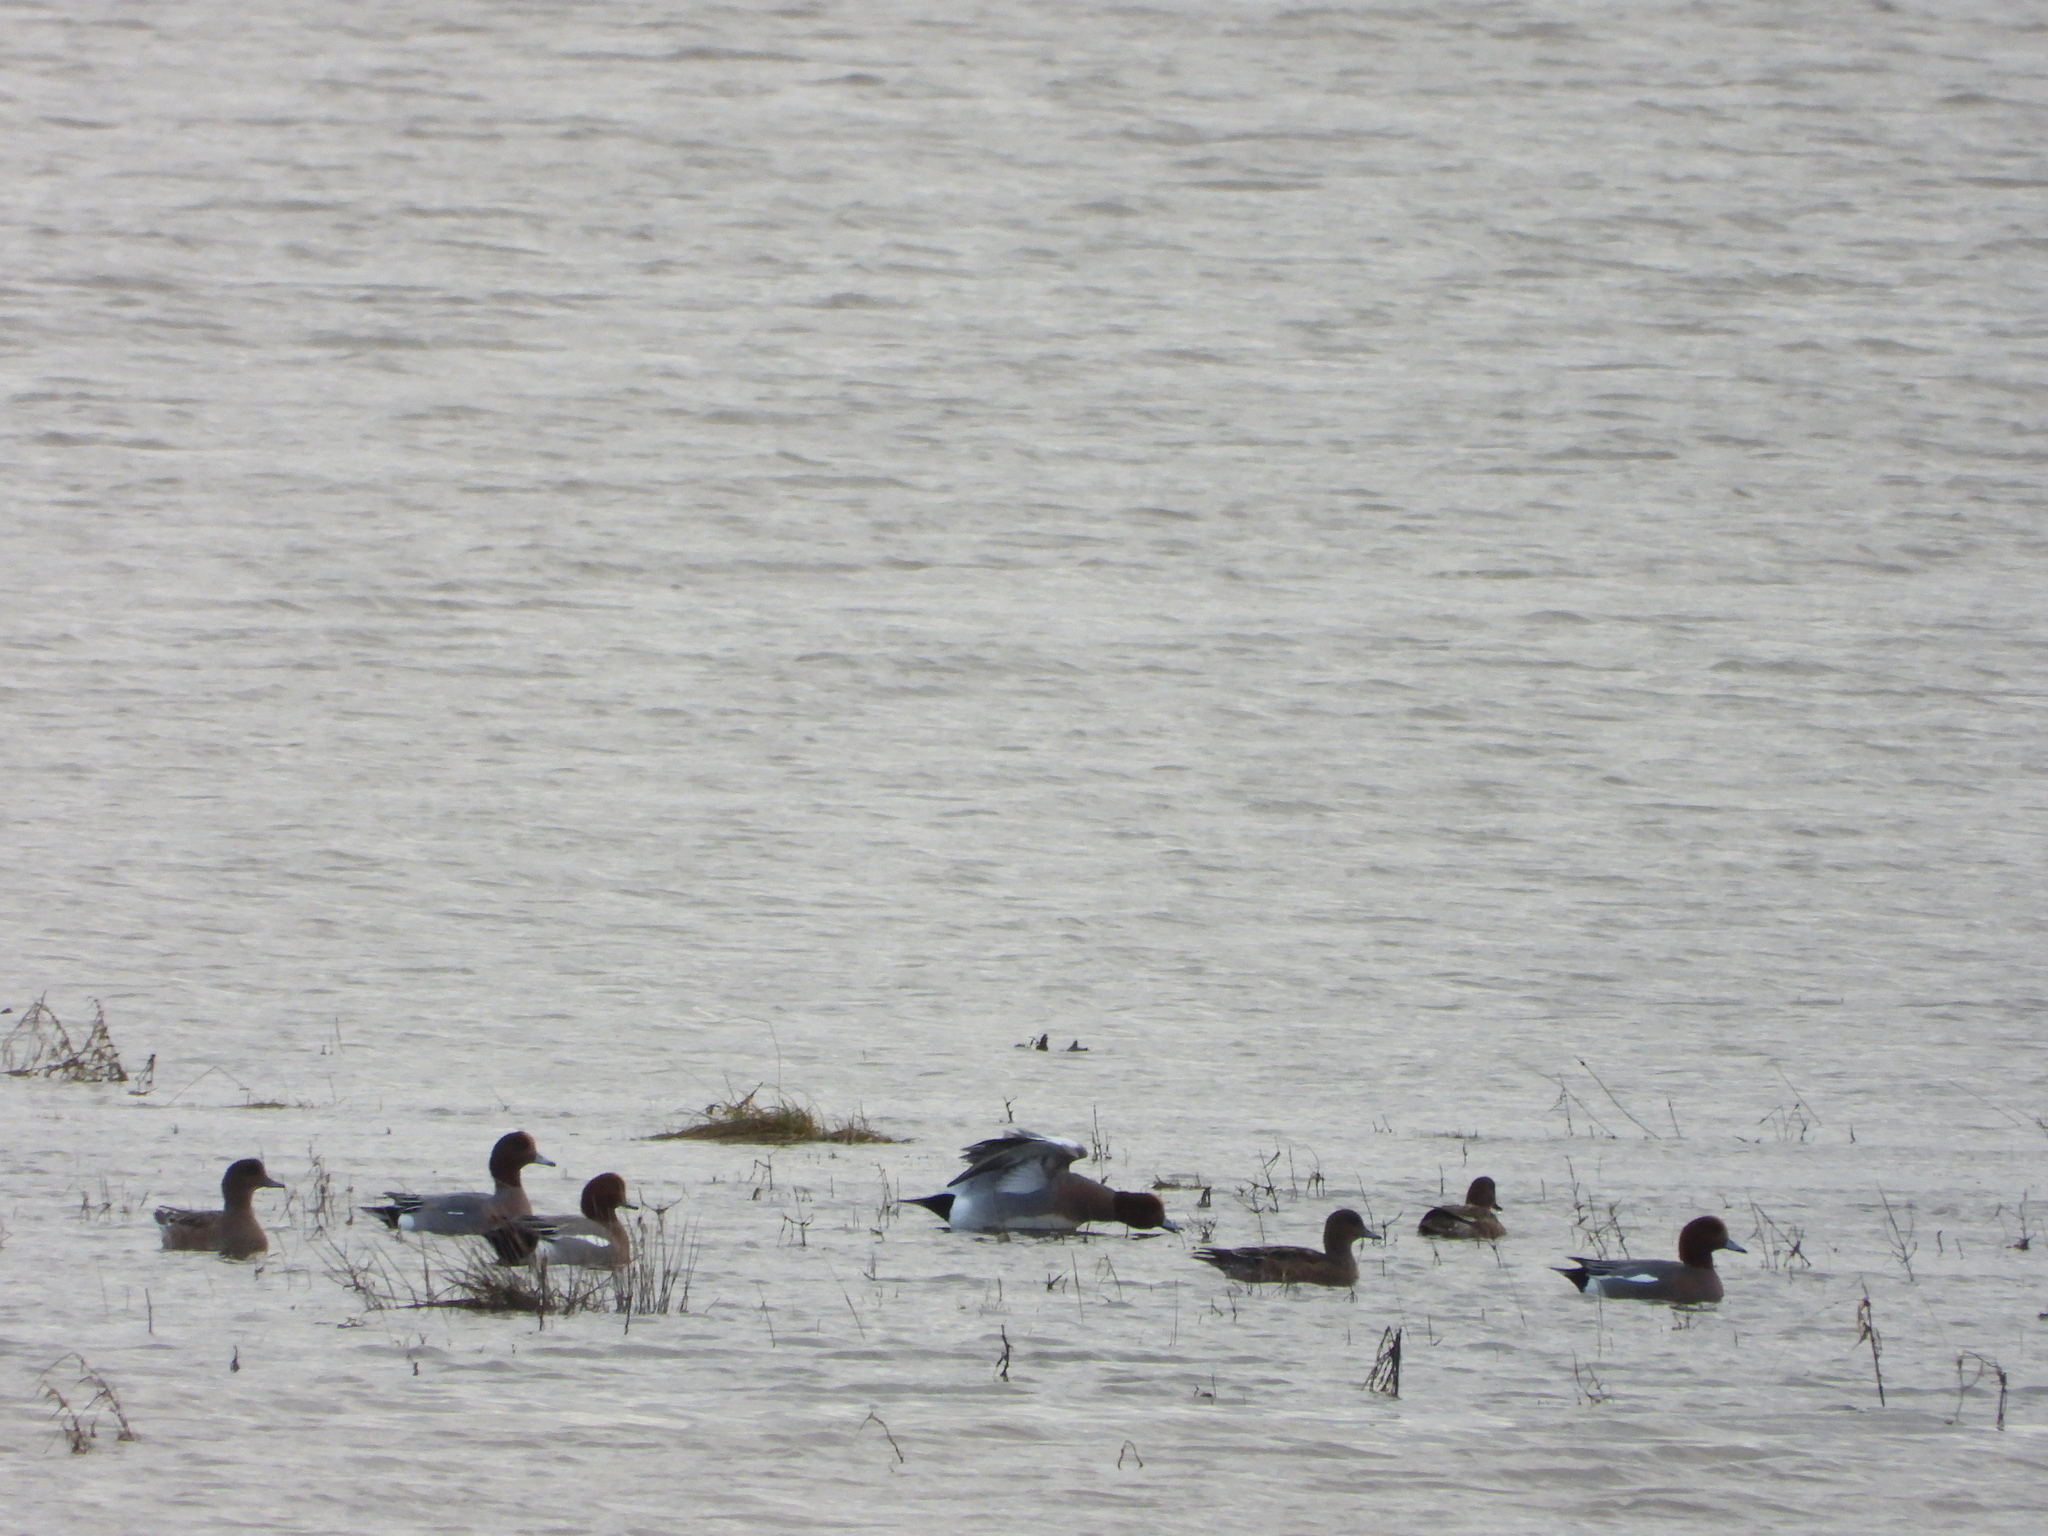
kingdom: Animalia
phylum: Chordata
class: Aves
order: Anseriformes
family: Anatidae
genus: Mareca
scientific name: Mareca penelope
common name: Eurasian wigeon
